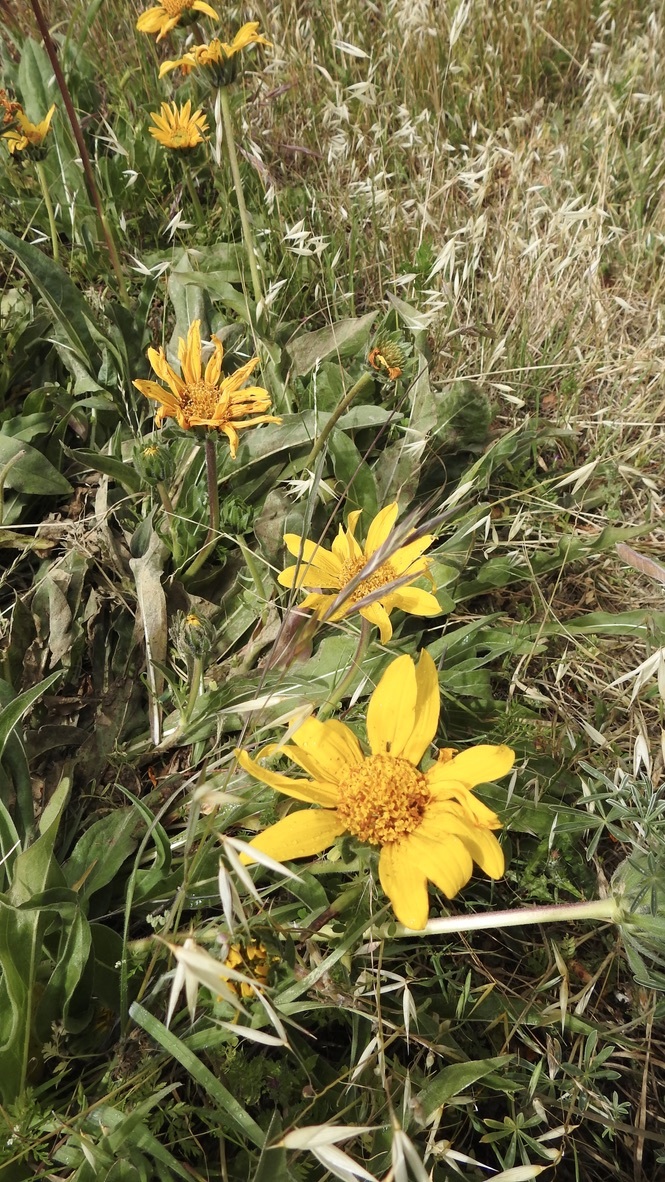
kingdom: Plantae
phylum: Tracheophyta
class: Magnoliopsida
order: Asterales
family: Asteraceae
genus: Wyethia
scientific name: Wyethia angustifolia
